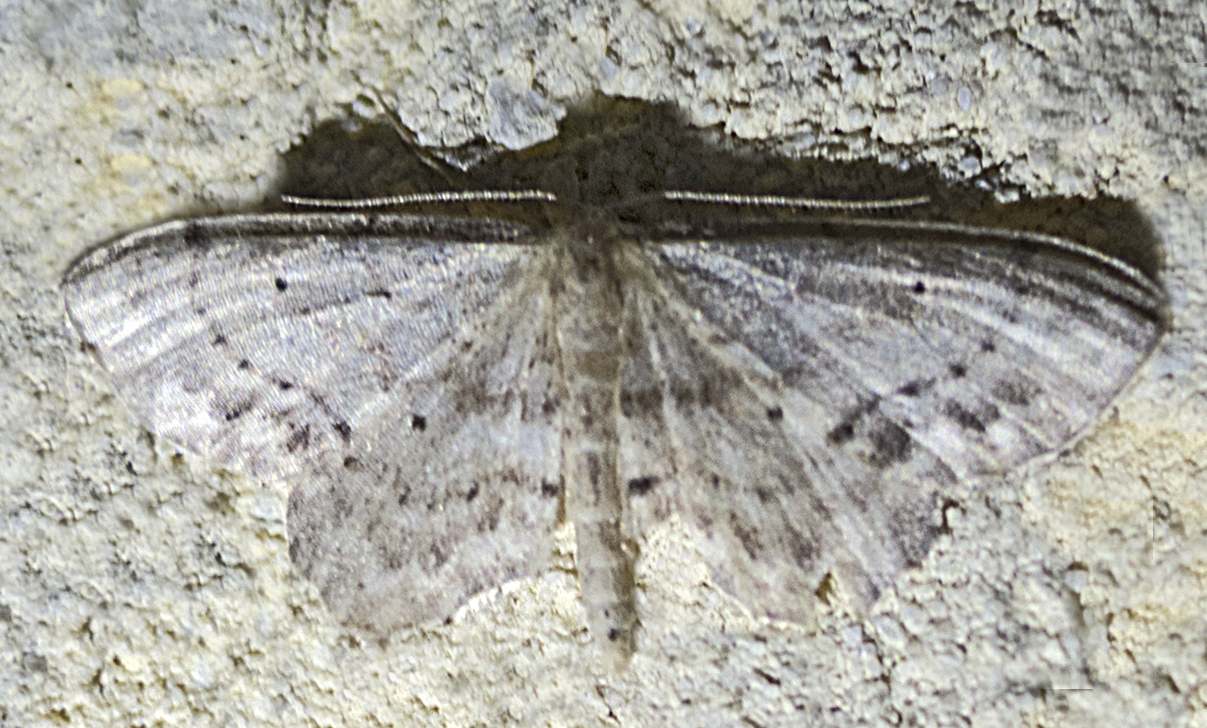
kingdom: Animalia
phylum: Arthropoda
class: Insecta
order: Lepidoptera
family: Geometridae
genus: Idaea
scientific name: Idaea dimidiata
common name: Single-dotted wave
